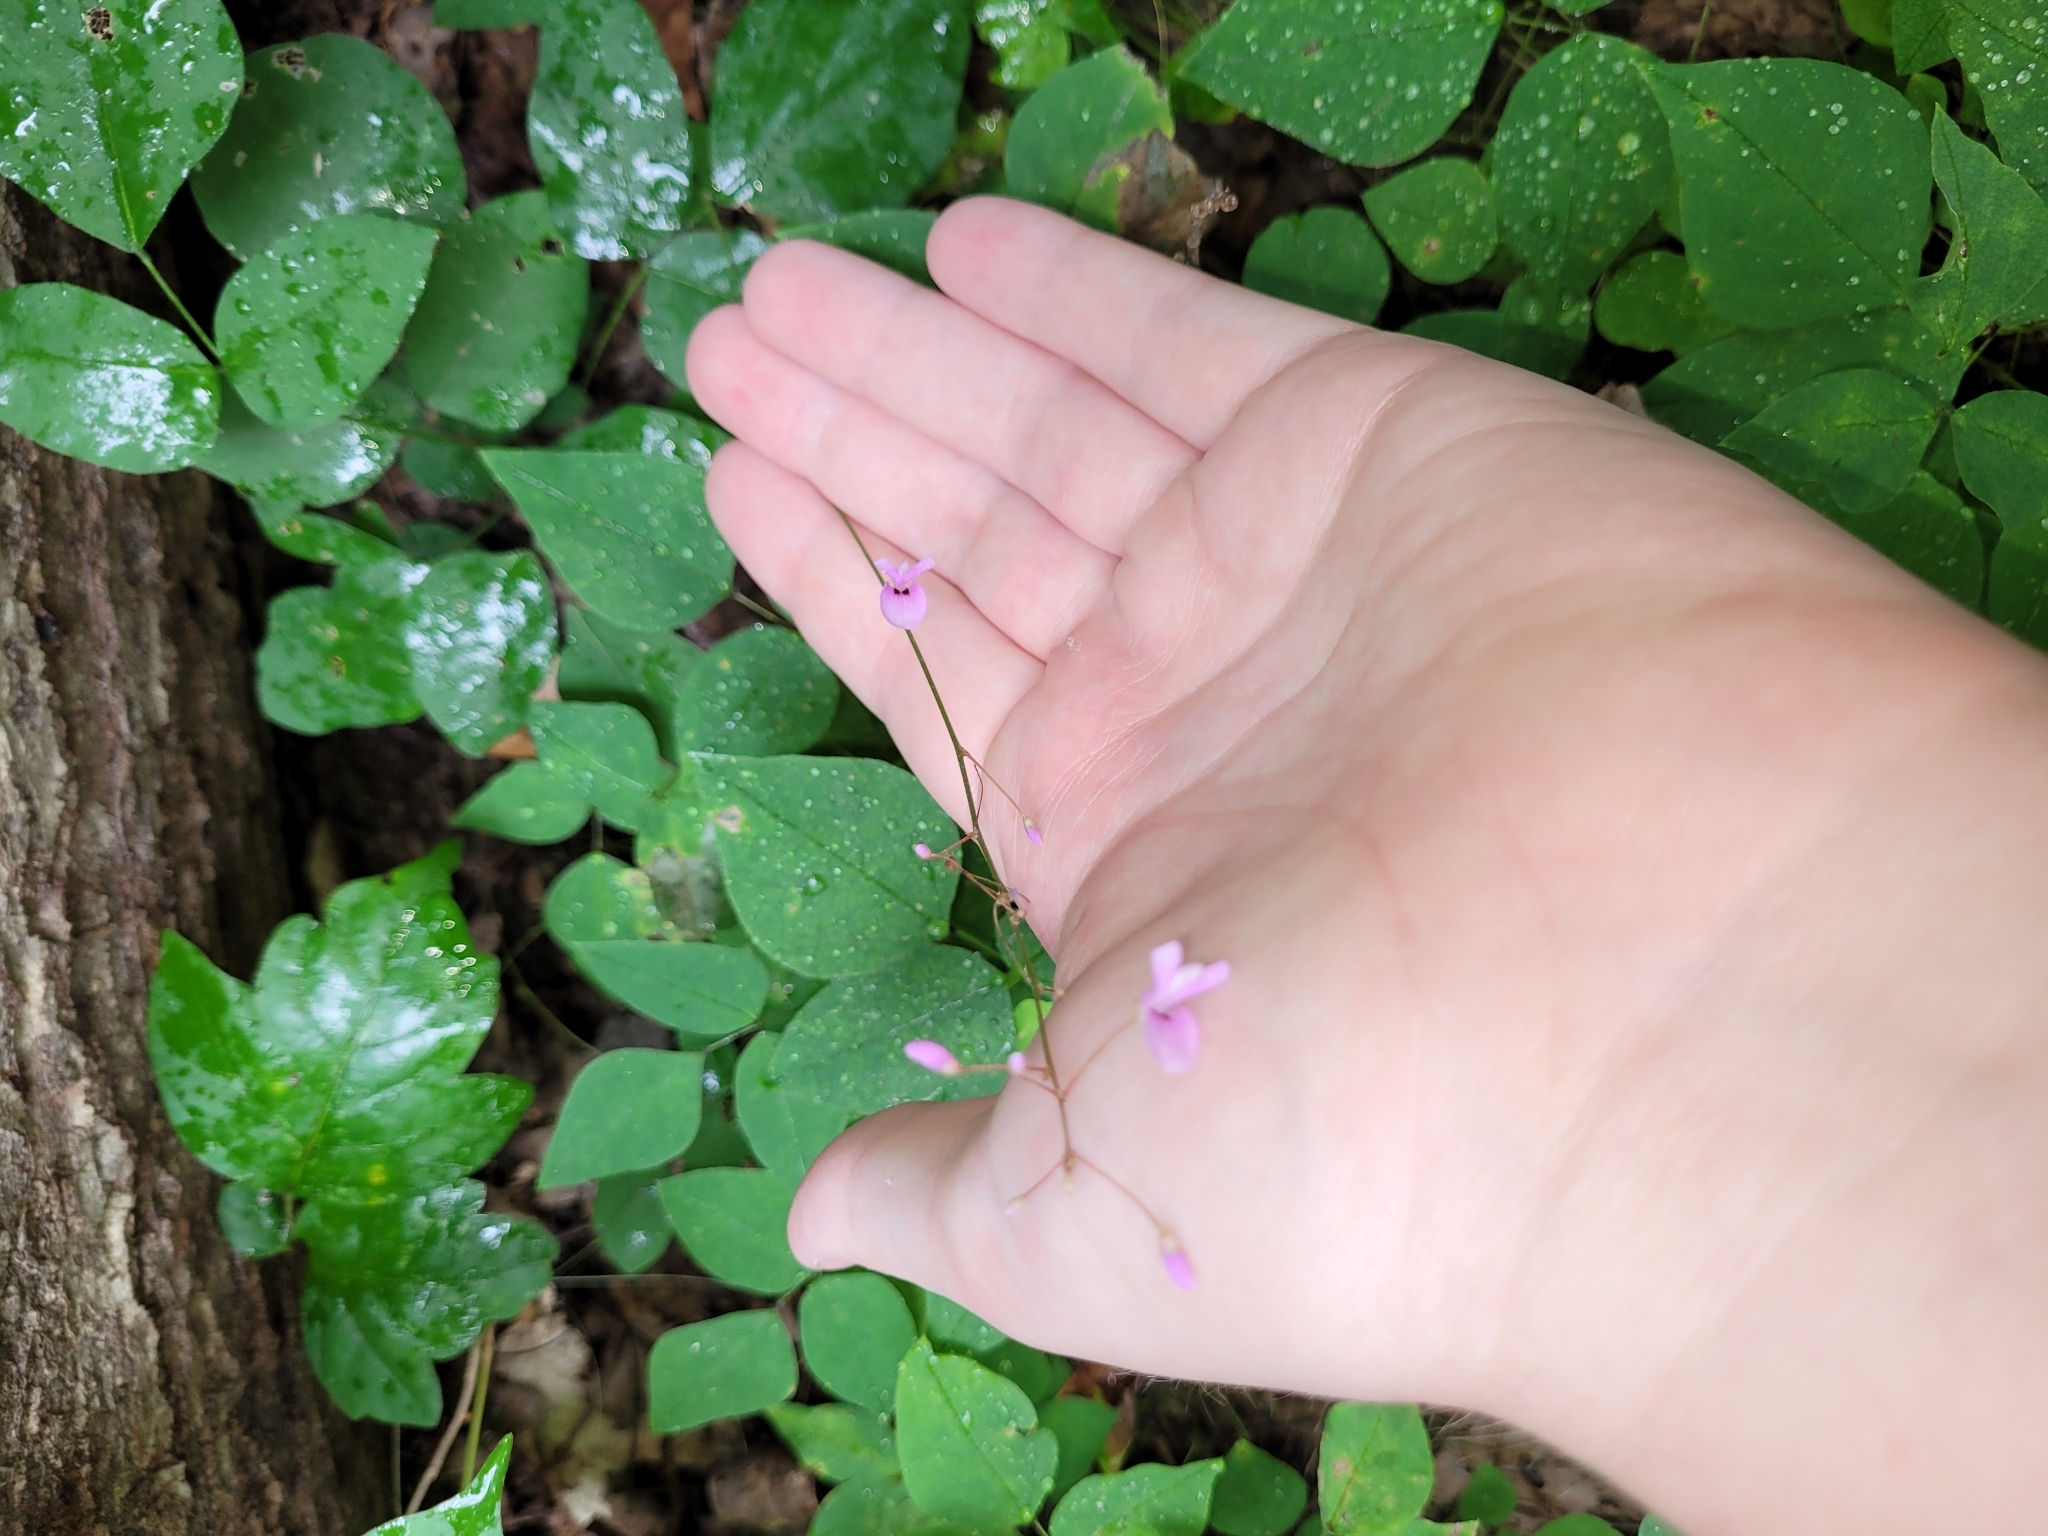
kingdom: Plantae
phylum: Tracheophyta
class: Magnoliopsida
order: Fabales
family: Fabaceae
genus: Hylodesmum
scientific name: Hylodesmum nudiflorum
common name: Bare-stemmed tick-trefoil
